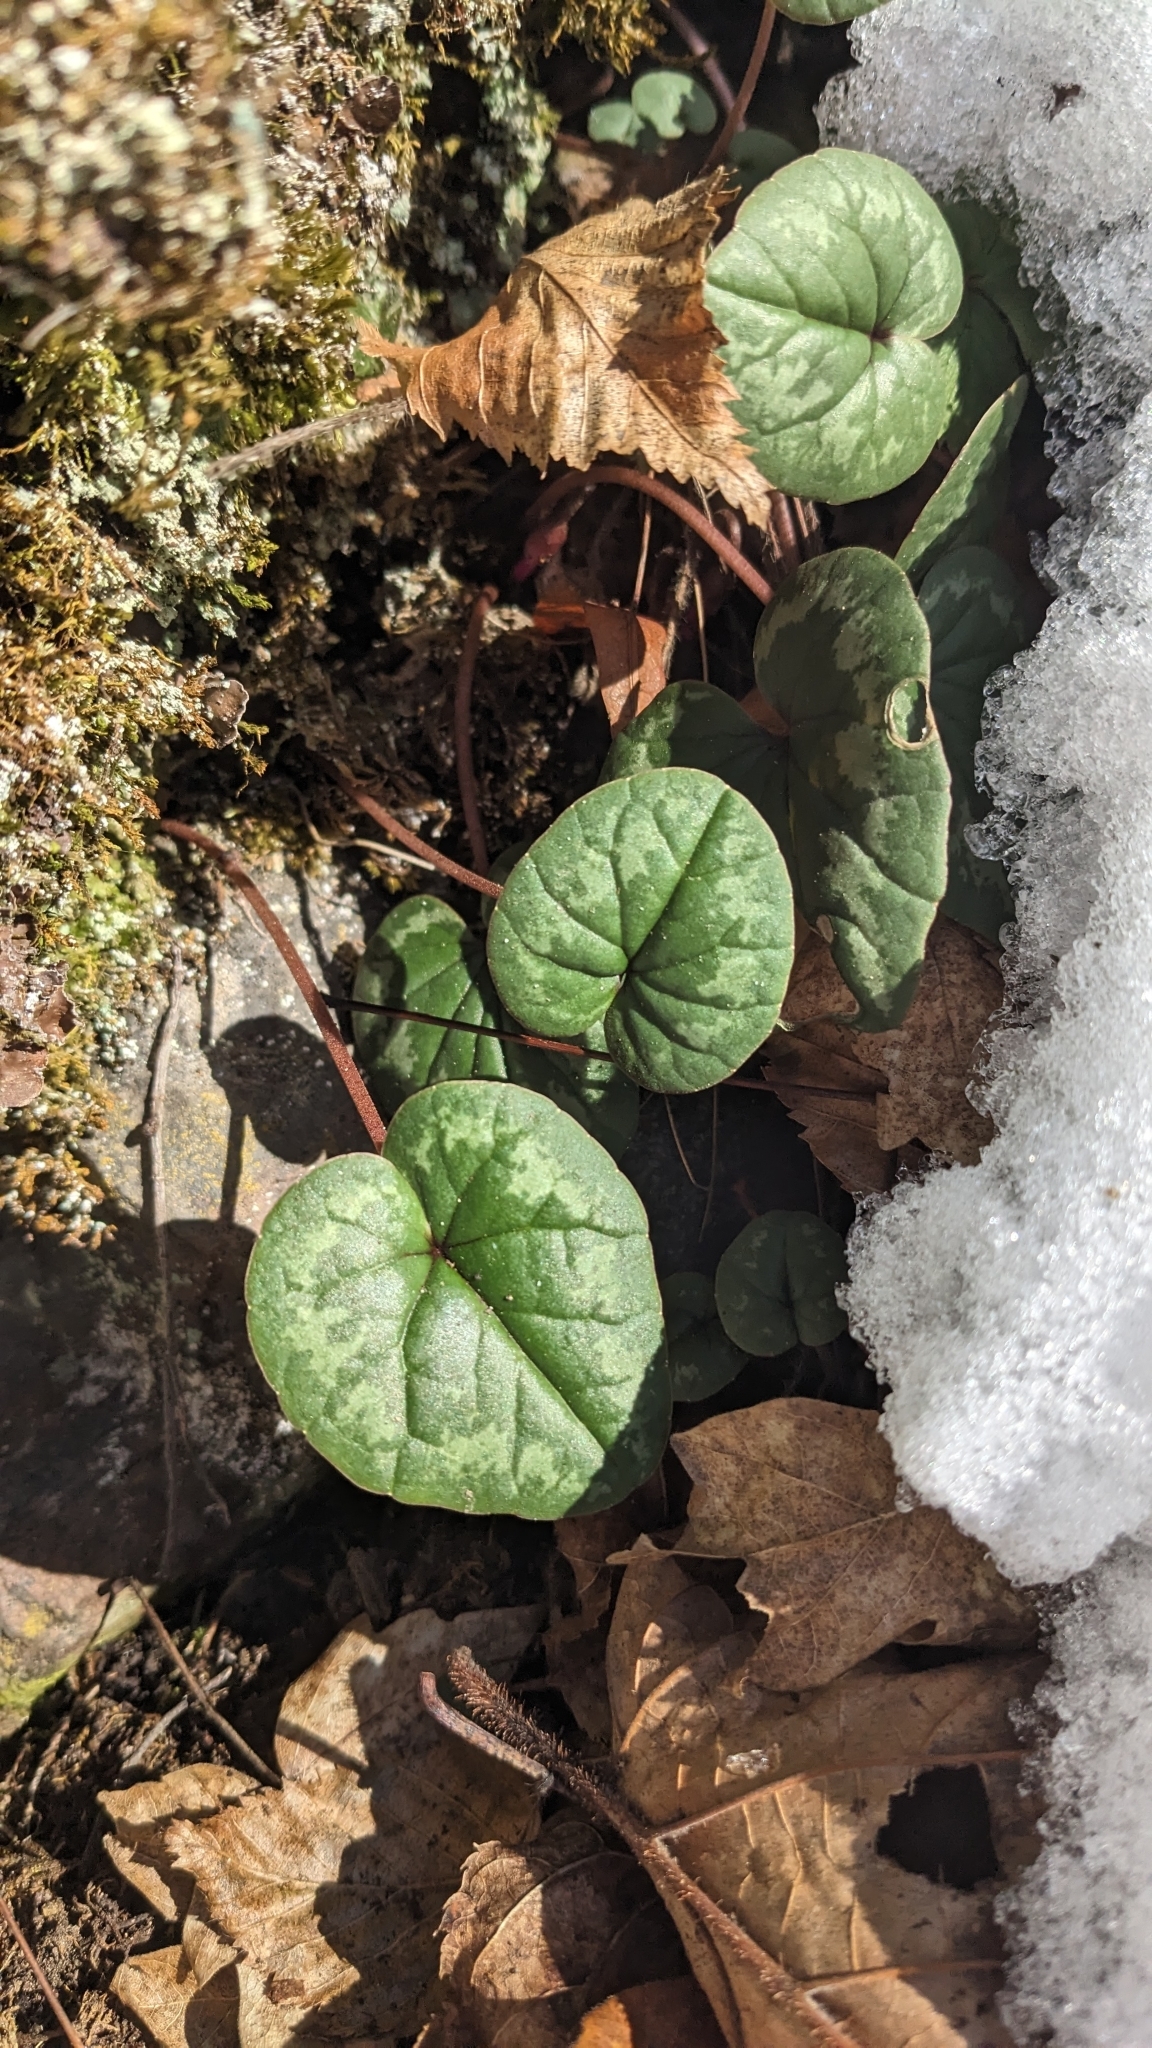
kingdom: Plantae
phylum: Tracheophyta
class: Magnoliopsida
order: Ericales
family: Primulaceae
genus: Cyclamen
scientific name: Cyclamen coum
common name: Eastern sowbread
